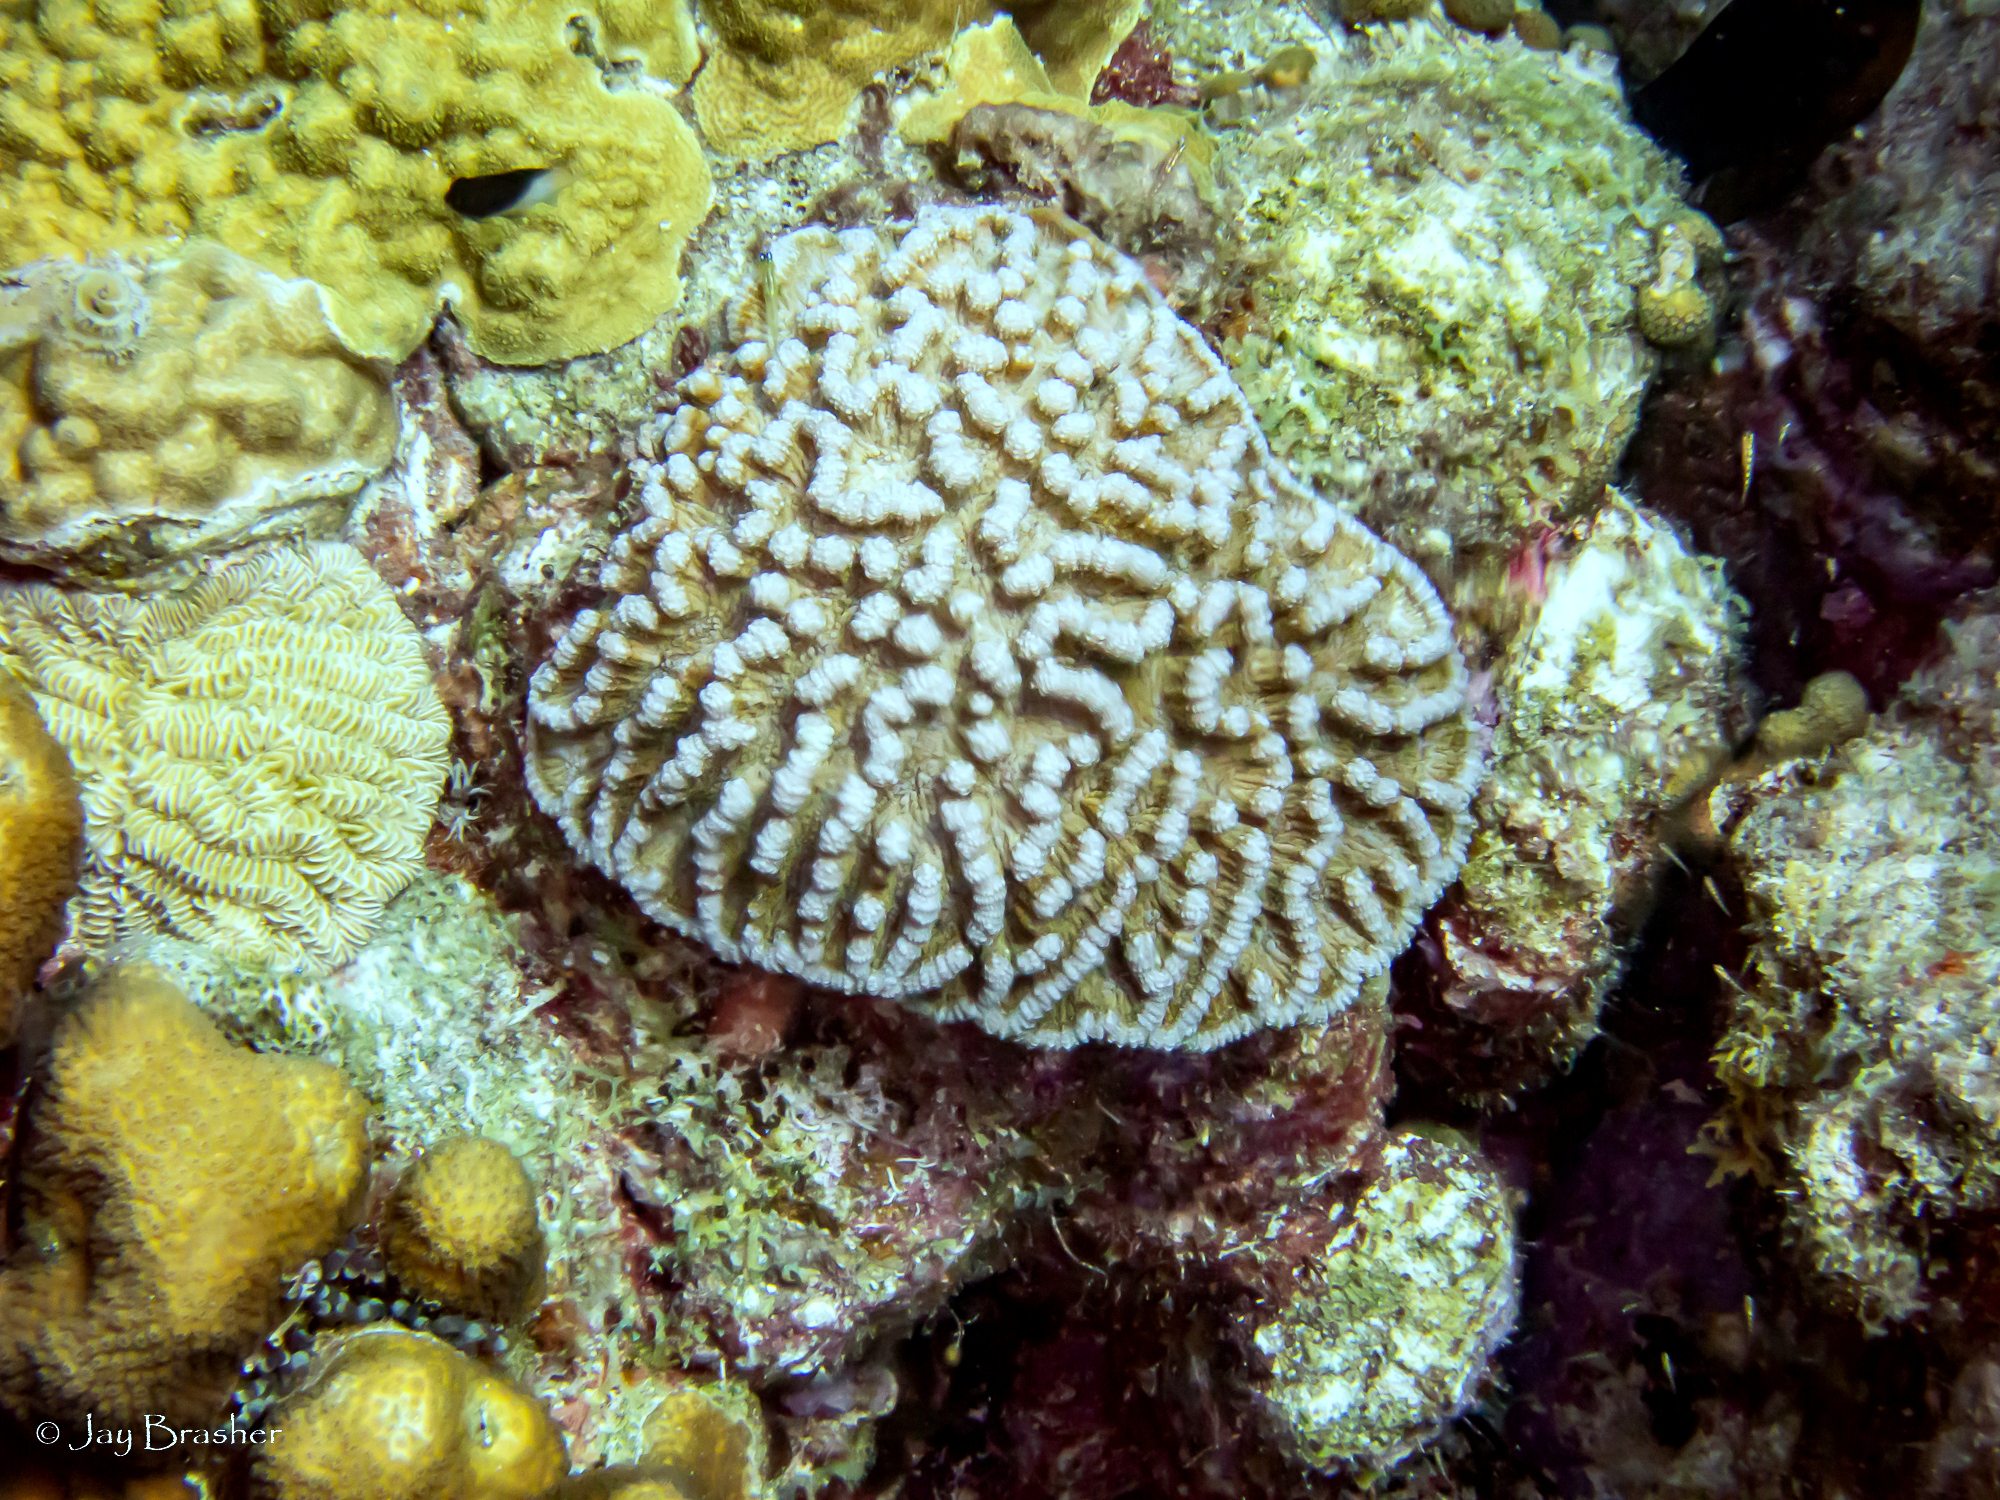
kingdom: Animalia
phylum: Cnidaria
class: Anthozoa
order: Scleractinia
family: Poritidae
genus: Porites
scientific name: Porites astreoides
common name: Mustard hill coral
